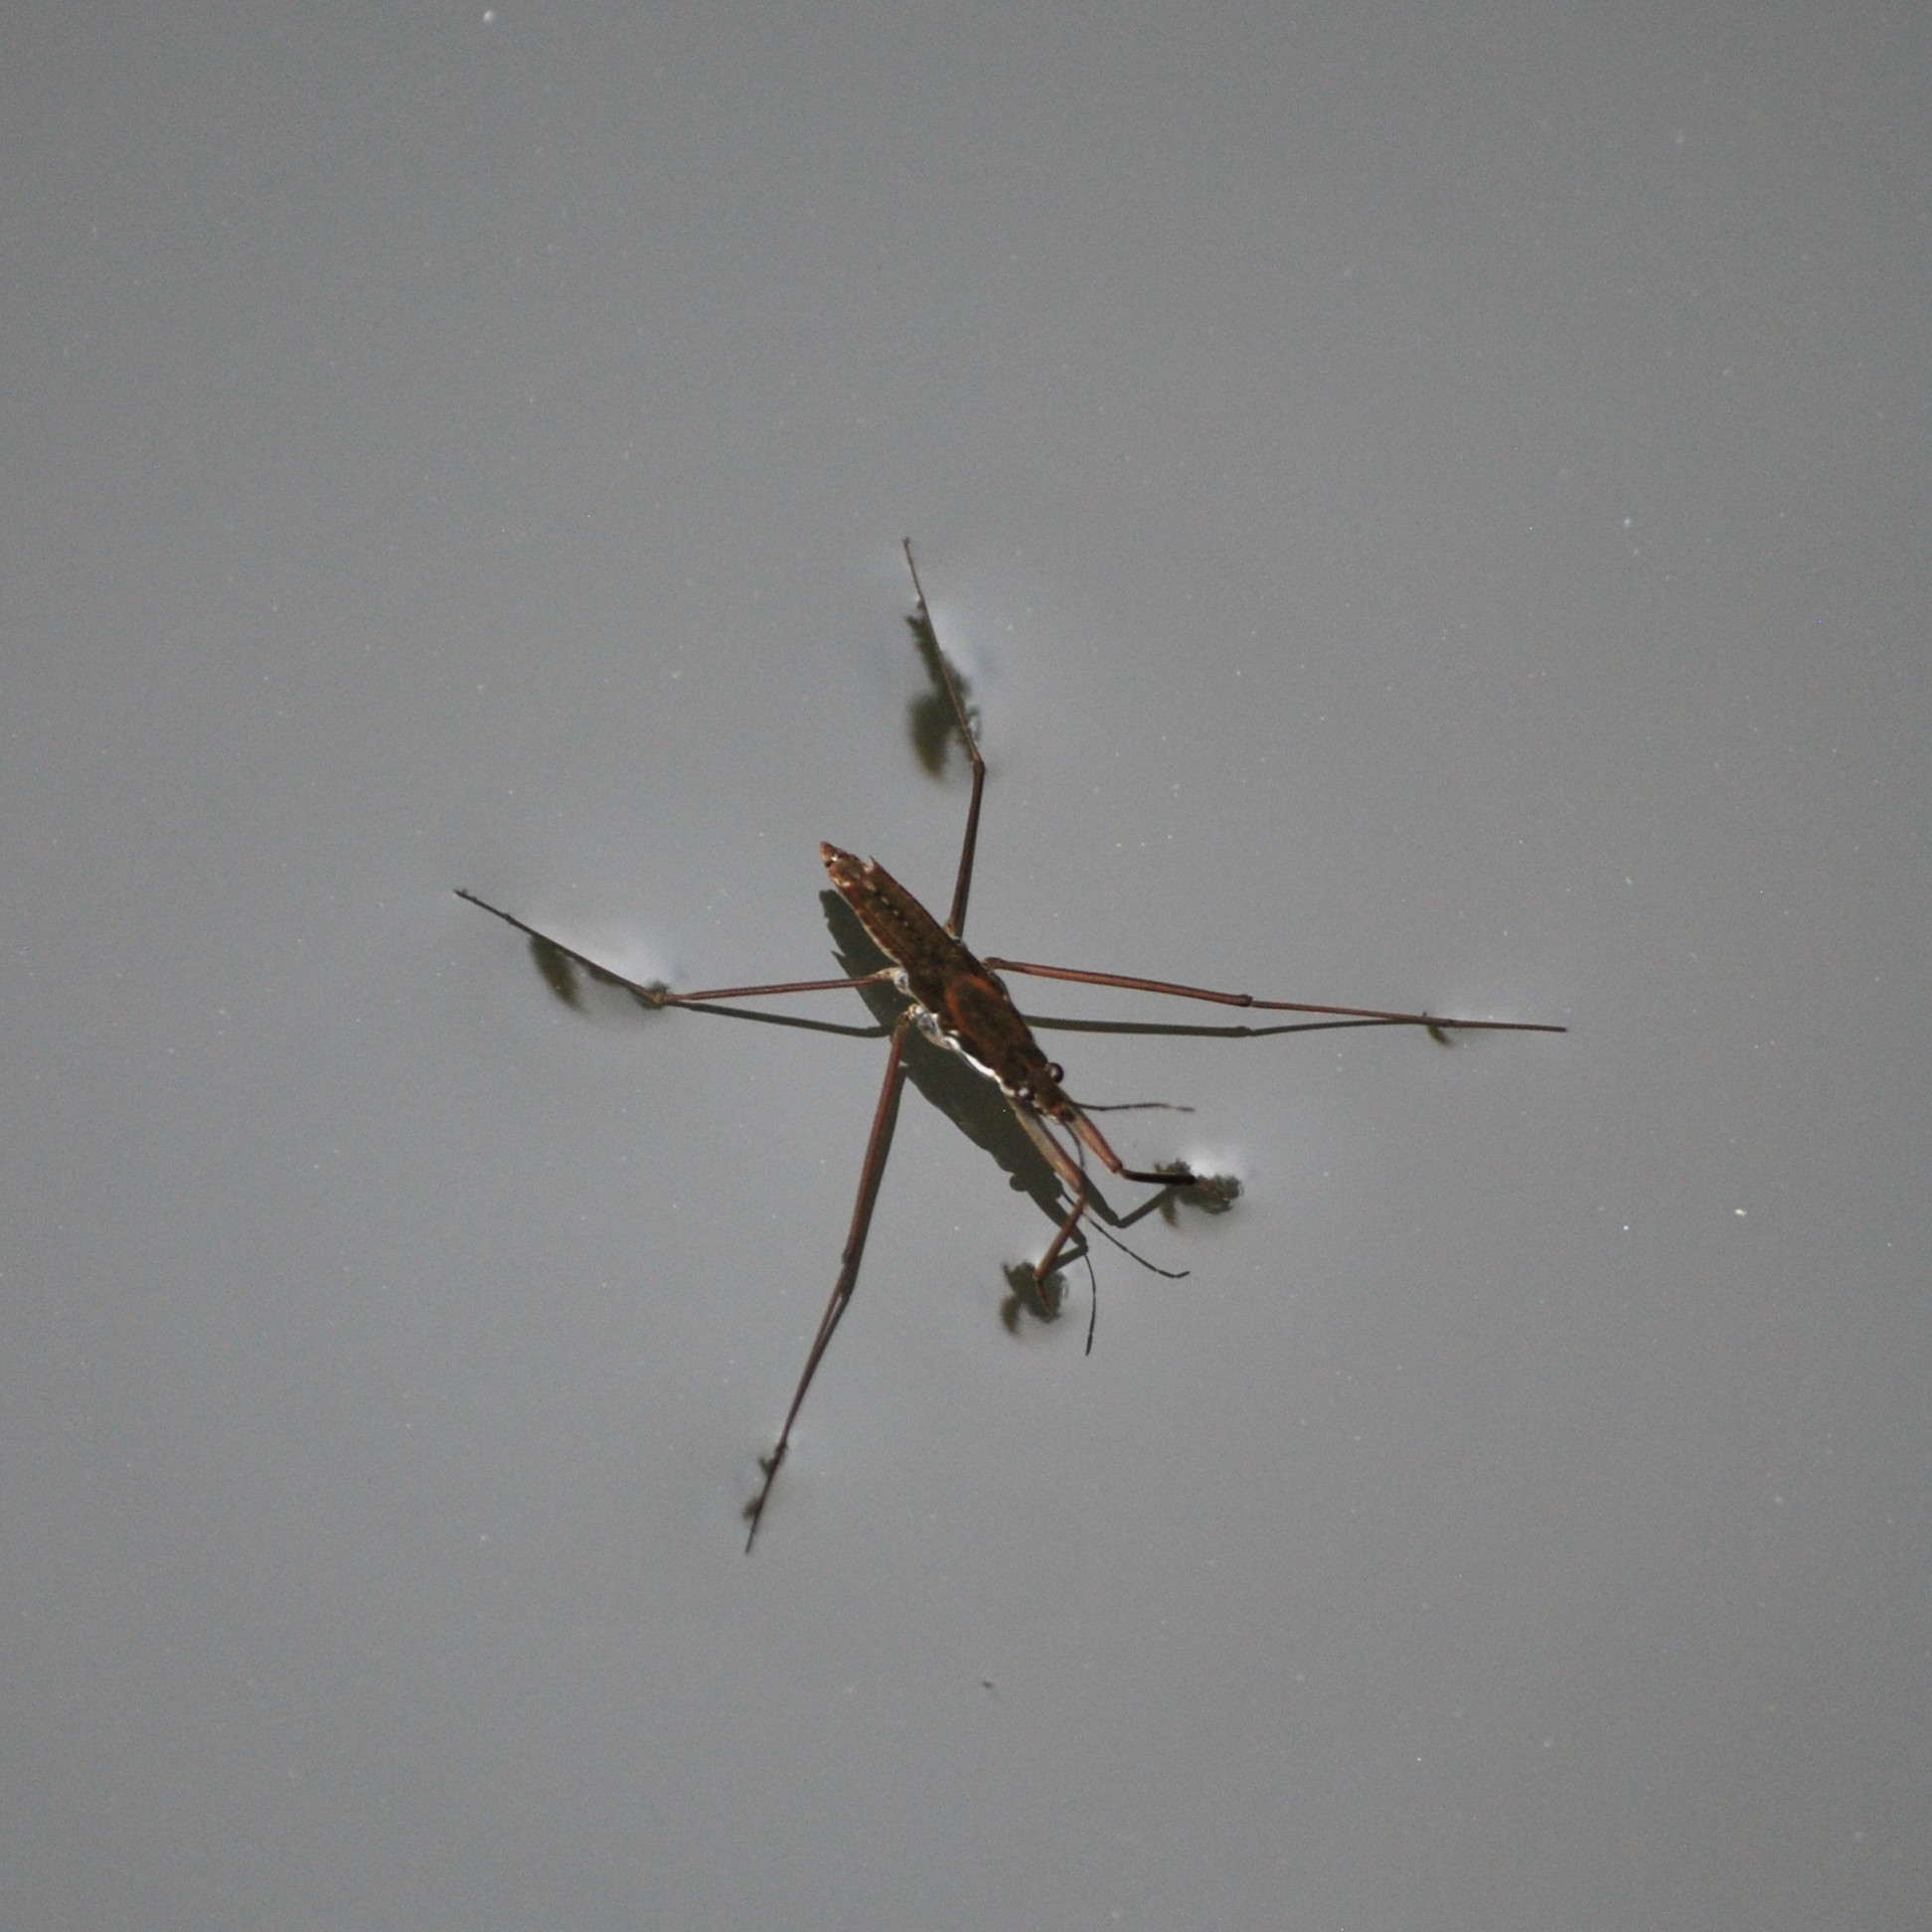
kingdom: Animalia
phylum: Arthropoda
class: Insecta
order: Hemiptera
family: Gerridae
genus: Aquarius
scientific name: Aquarius remigis
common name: Common water strider
